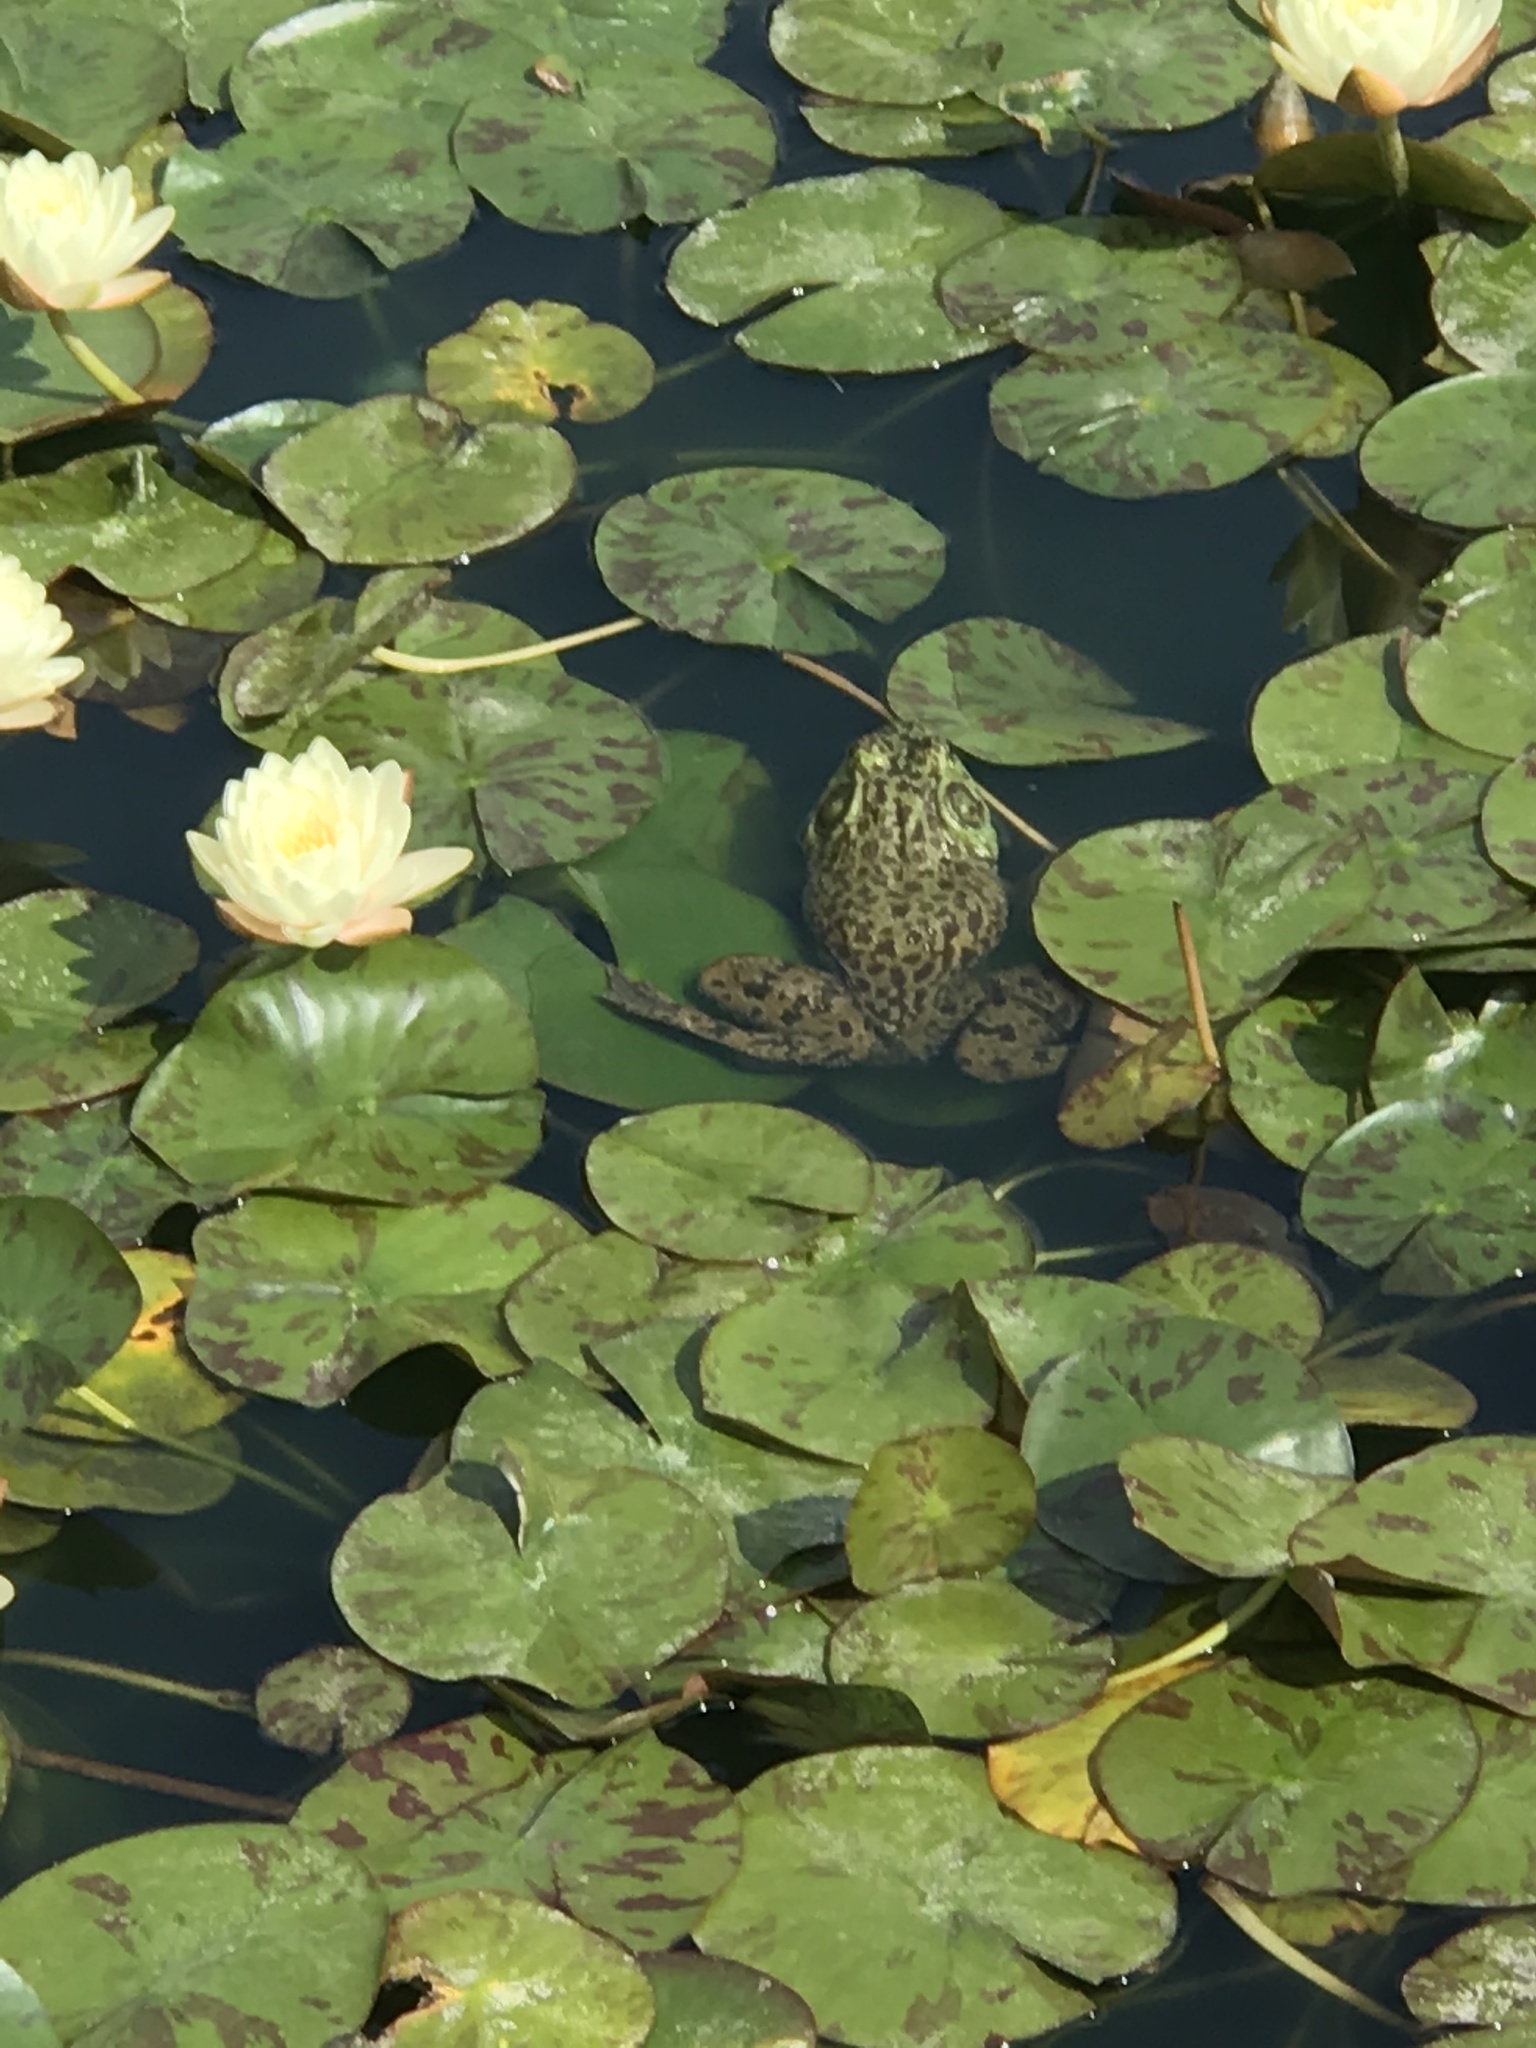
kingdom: Animalia
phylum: Chordata
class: Amphibia
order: Anura
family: Ranidae
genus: Lithobates
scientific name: Lithobates catesbeianus
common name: American bullfrog
